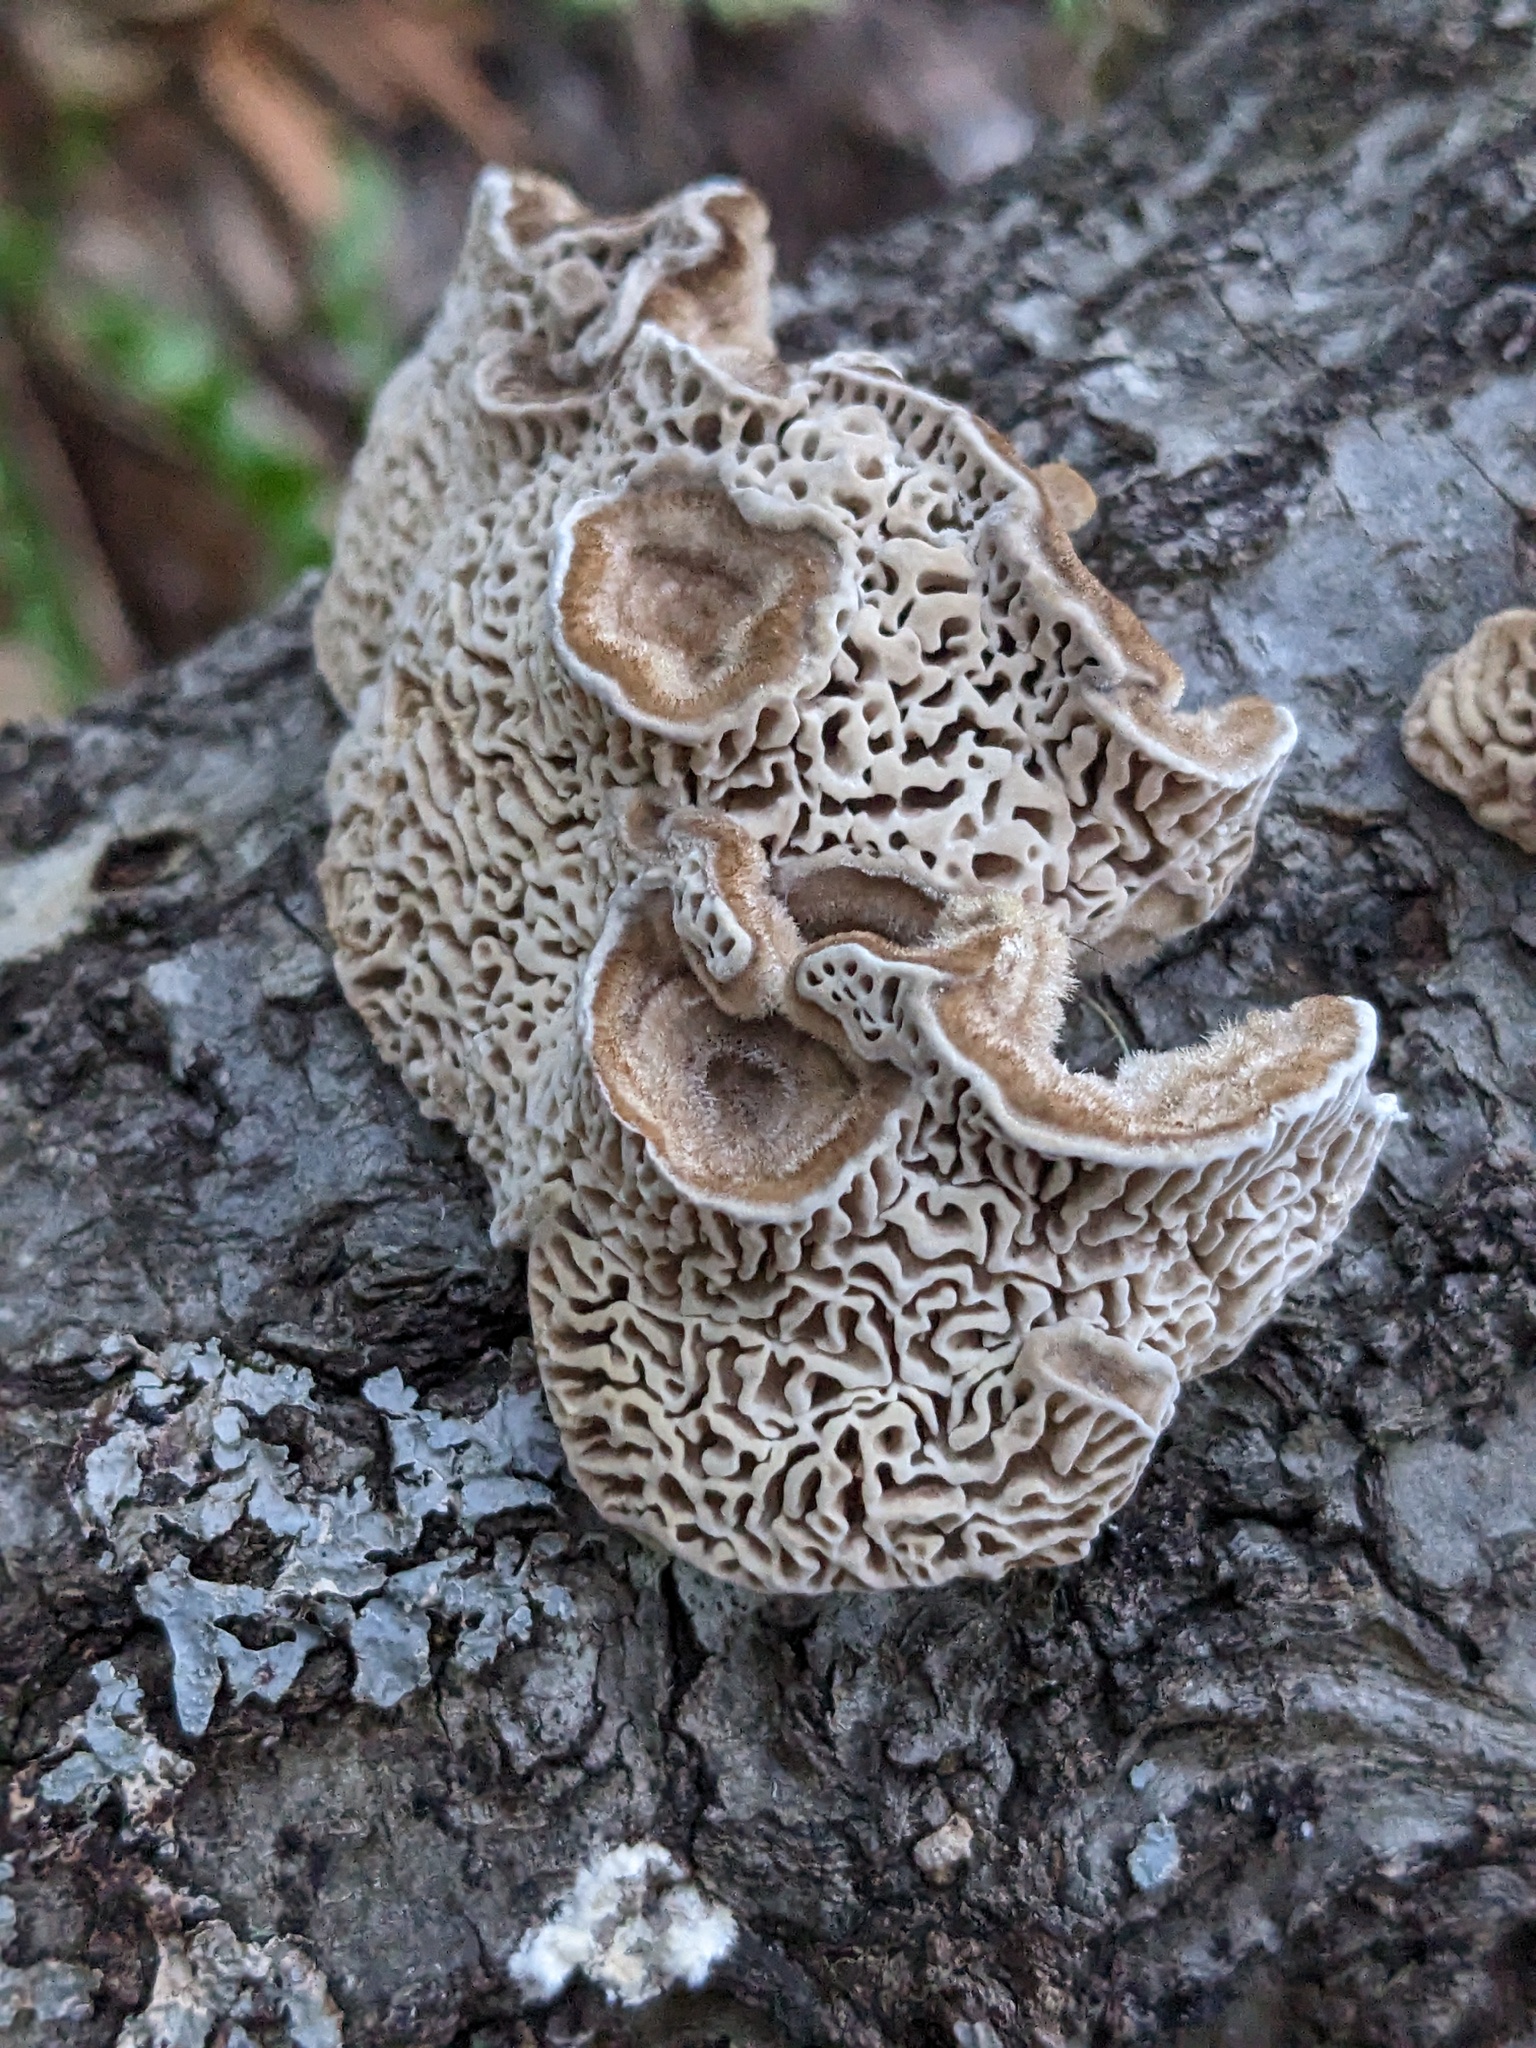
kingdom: Fungi
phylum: Basidiomycota
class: Agaricomycetes
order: Polyporales
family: Polyporaceae
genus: Lenzites
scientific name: Lenzites betulinus
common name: Birch mazegill
